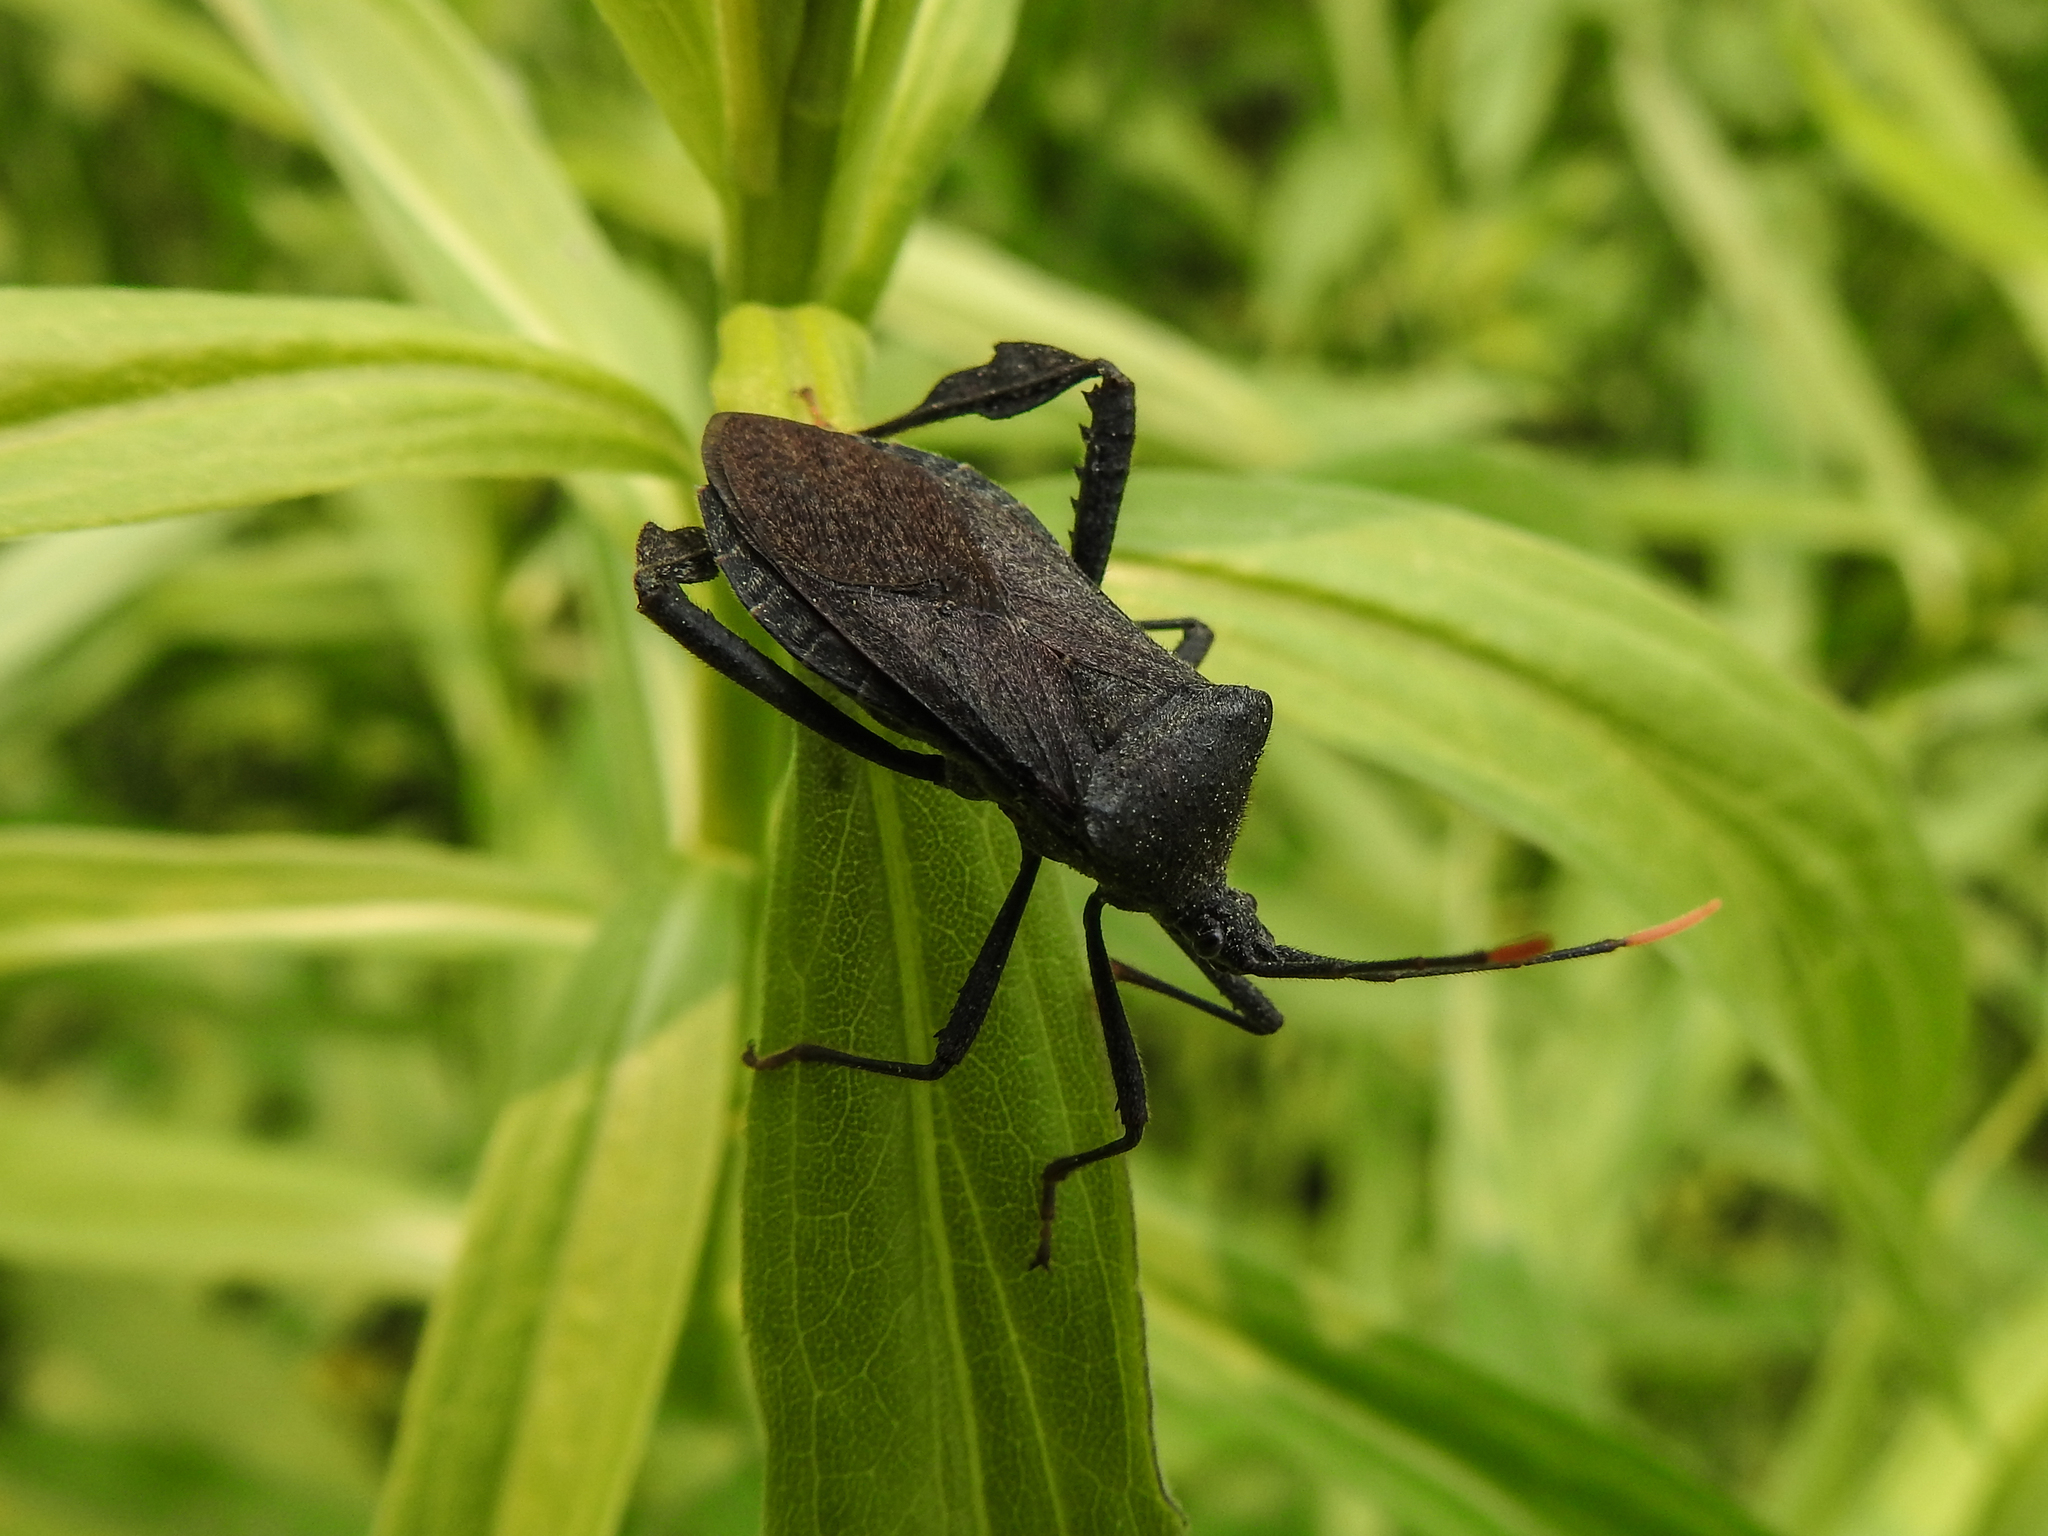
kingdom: Animalia
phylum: Arthropoda
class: Insecta
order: Hemiptera
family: Coreidae
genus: Acanthocephala
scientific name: Acanthocephala terminalis
